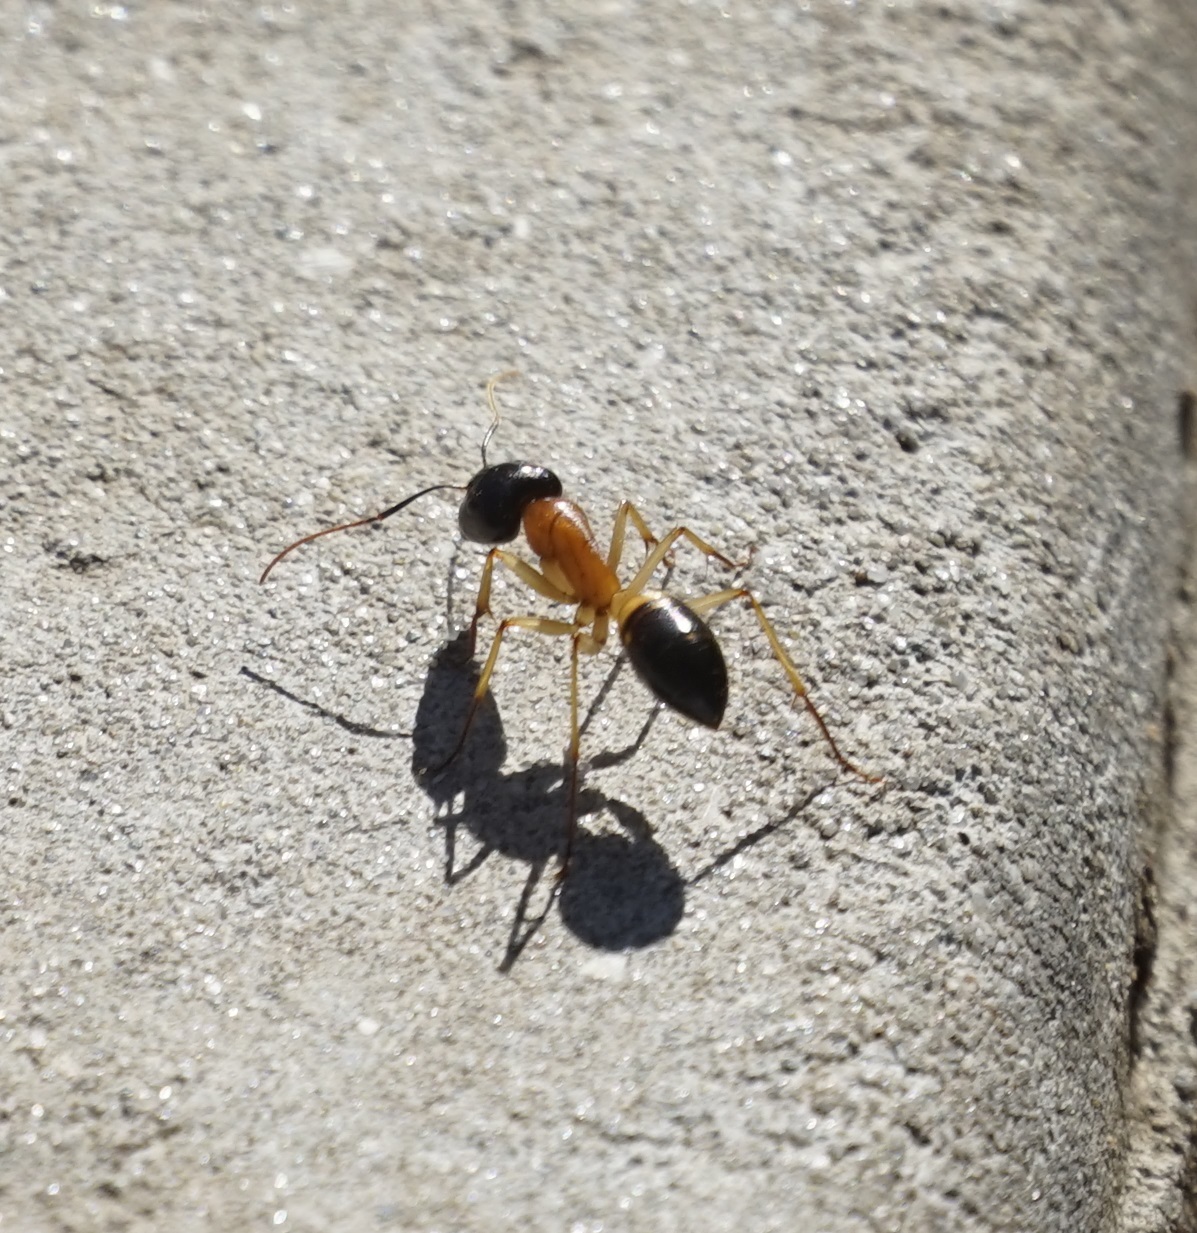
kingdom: Animalia
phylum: Arthropoda
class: Insecta
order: Hymenoptera
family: Formicidae
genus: Camponotus
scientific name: Camponotus consobrinus
